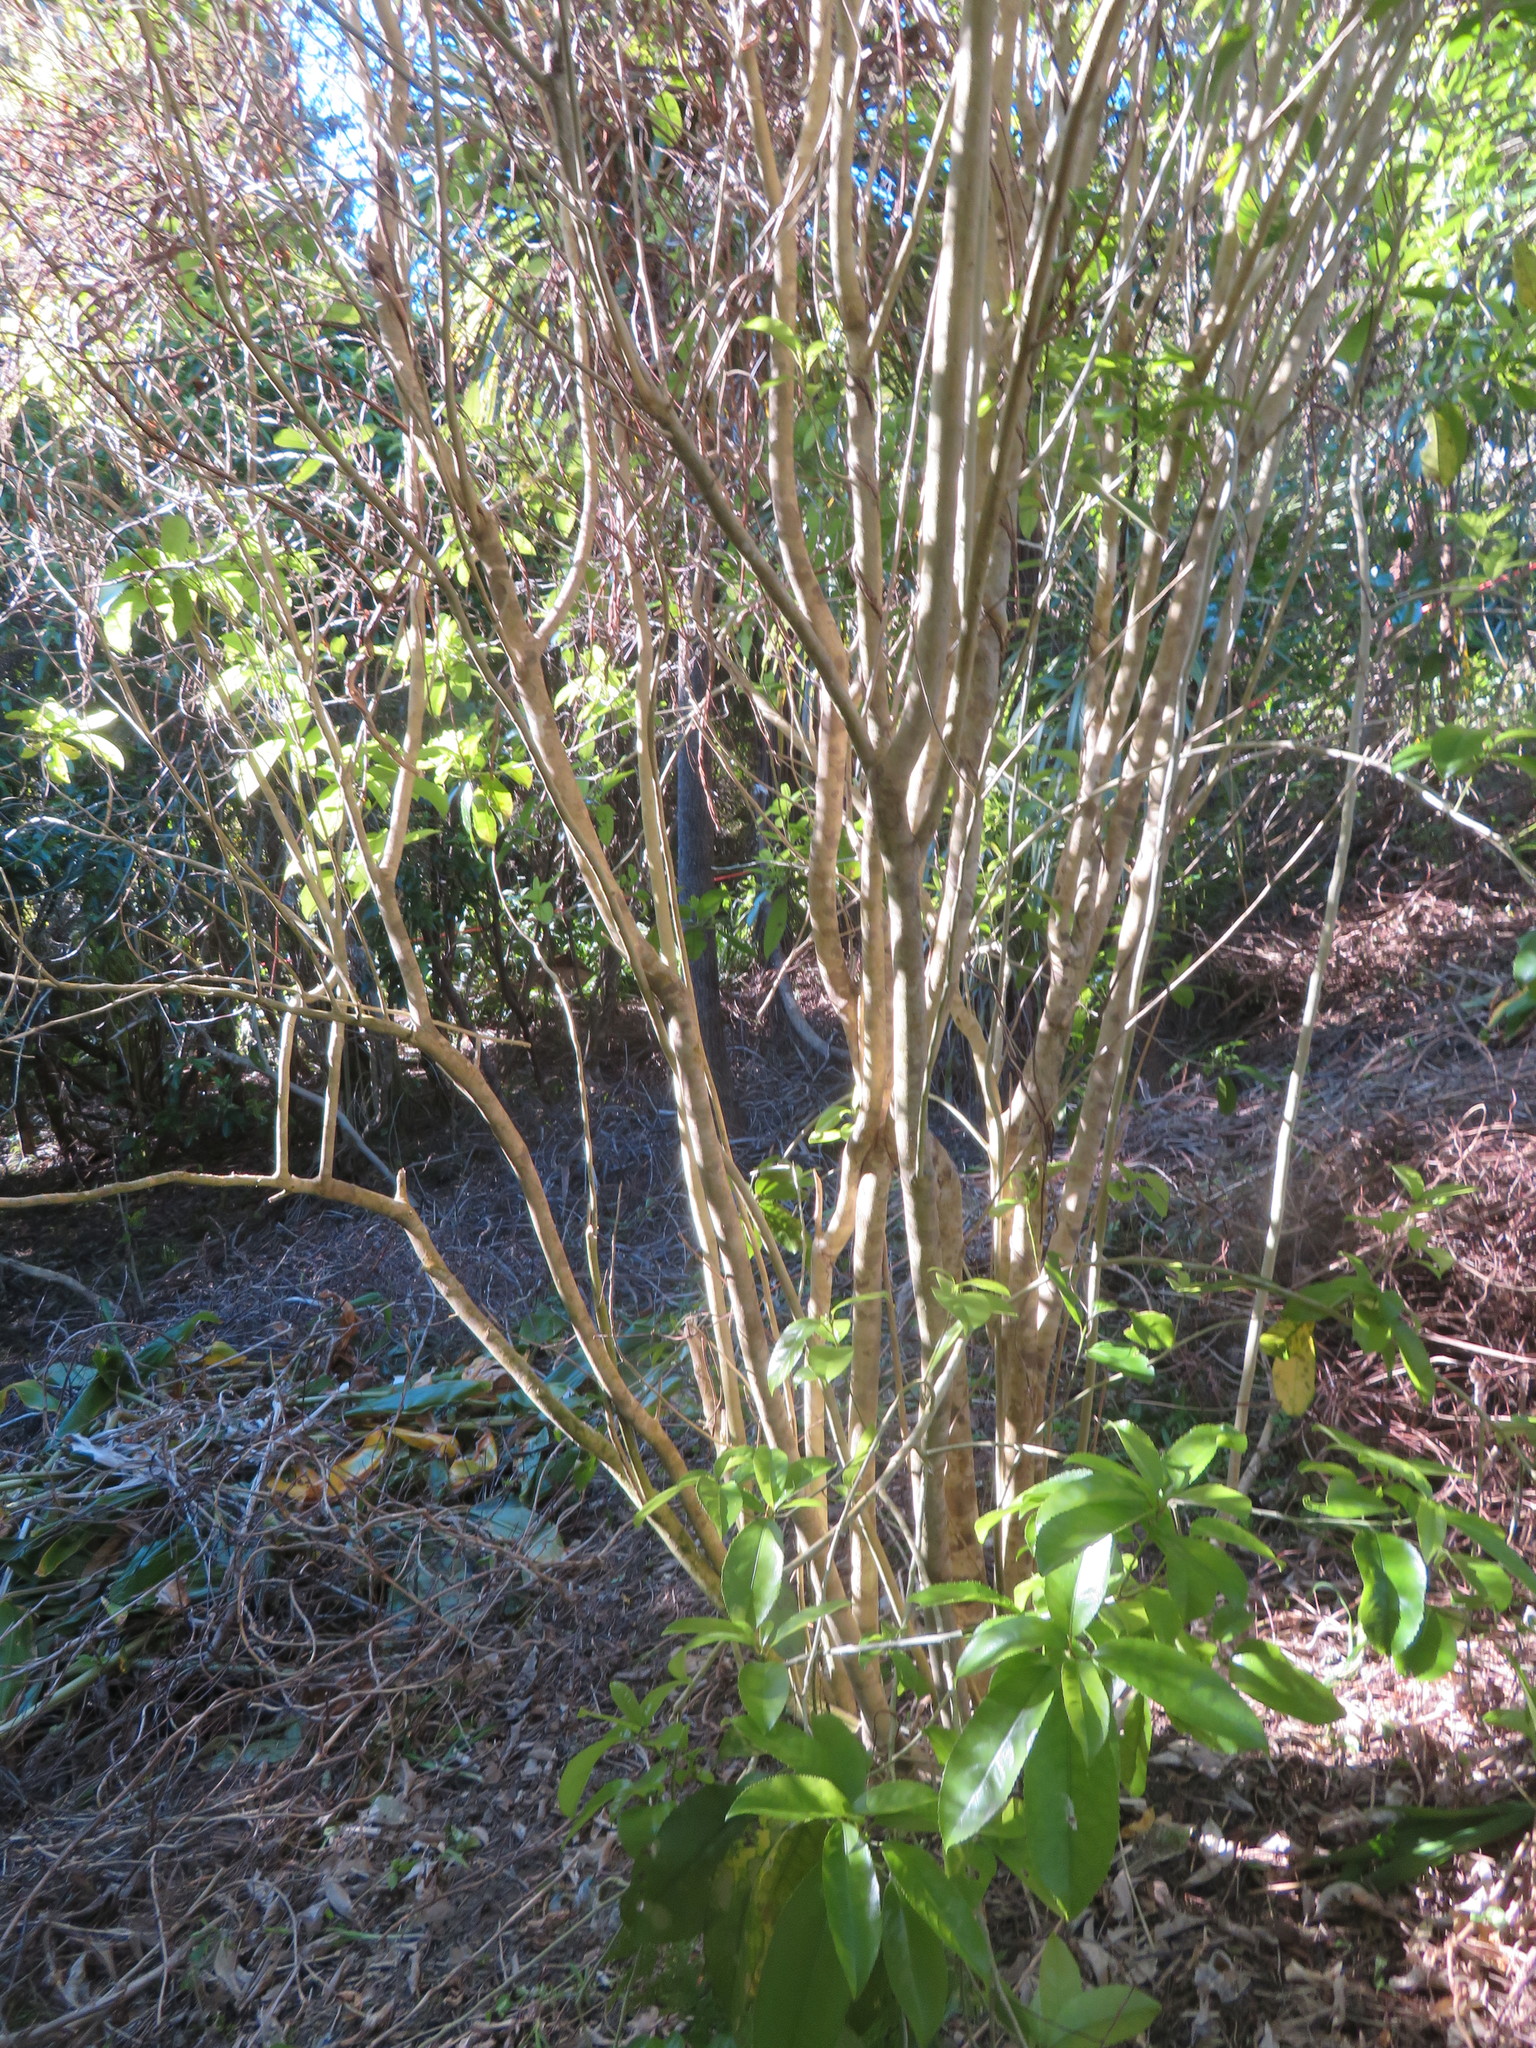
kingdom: Plantae
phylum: Tracheophyta
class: Magnoliopsida
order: Malpighiales
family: Violaceae
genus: Melicytus
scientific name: Melicytus ramiflorus
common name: Mahoe
